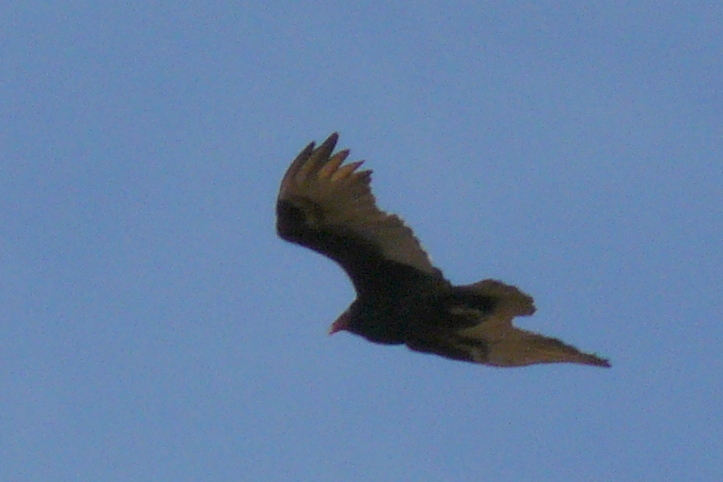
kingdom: Animalia
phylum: Chordata
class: Aves
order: Accipitriformes
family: Cathartidae
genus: Cathartes
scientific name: Cathartes aura
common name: Turkey vulture
